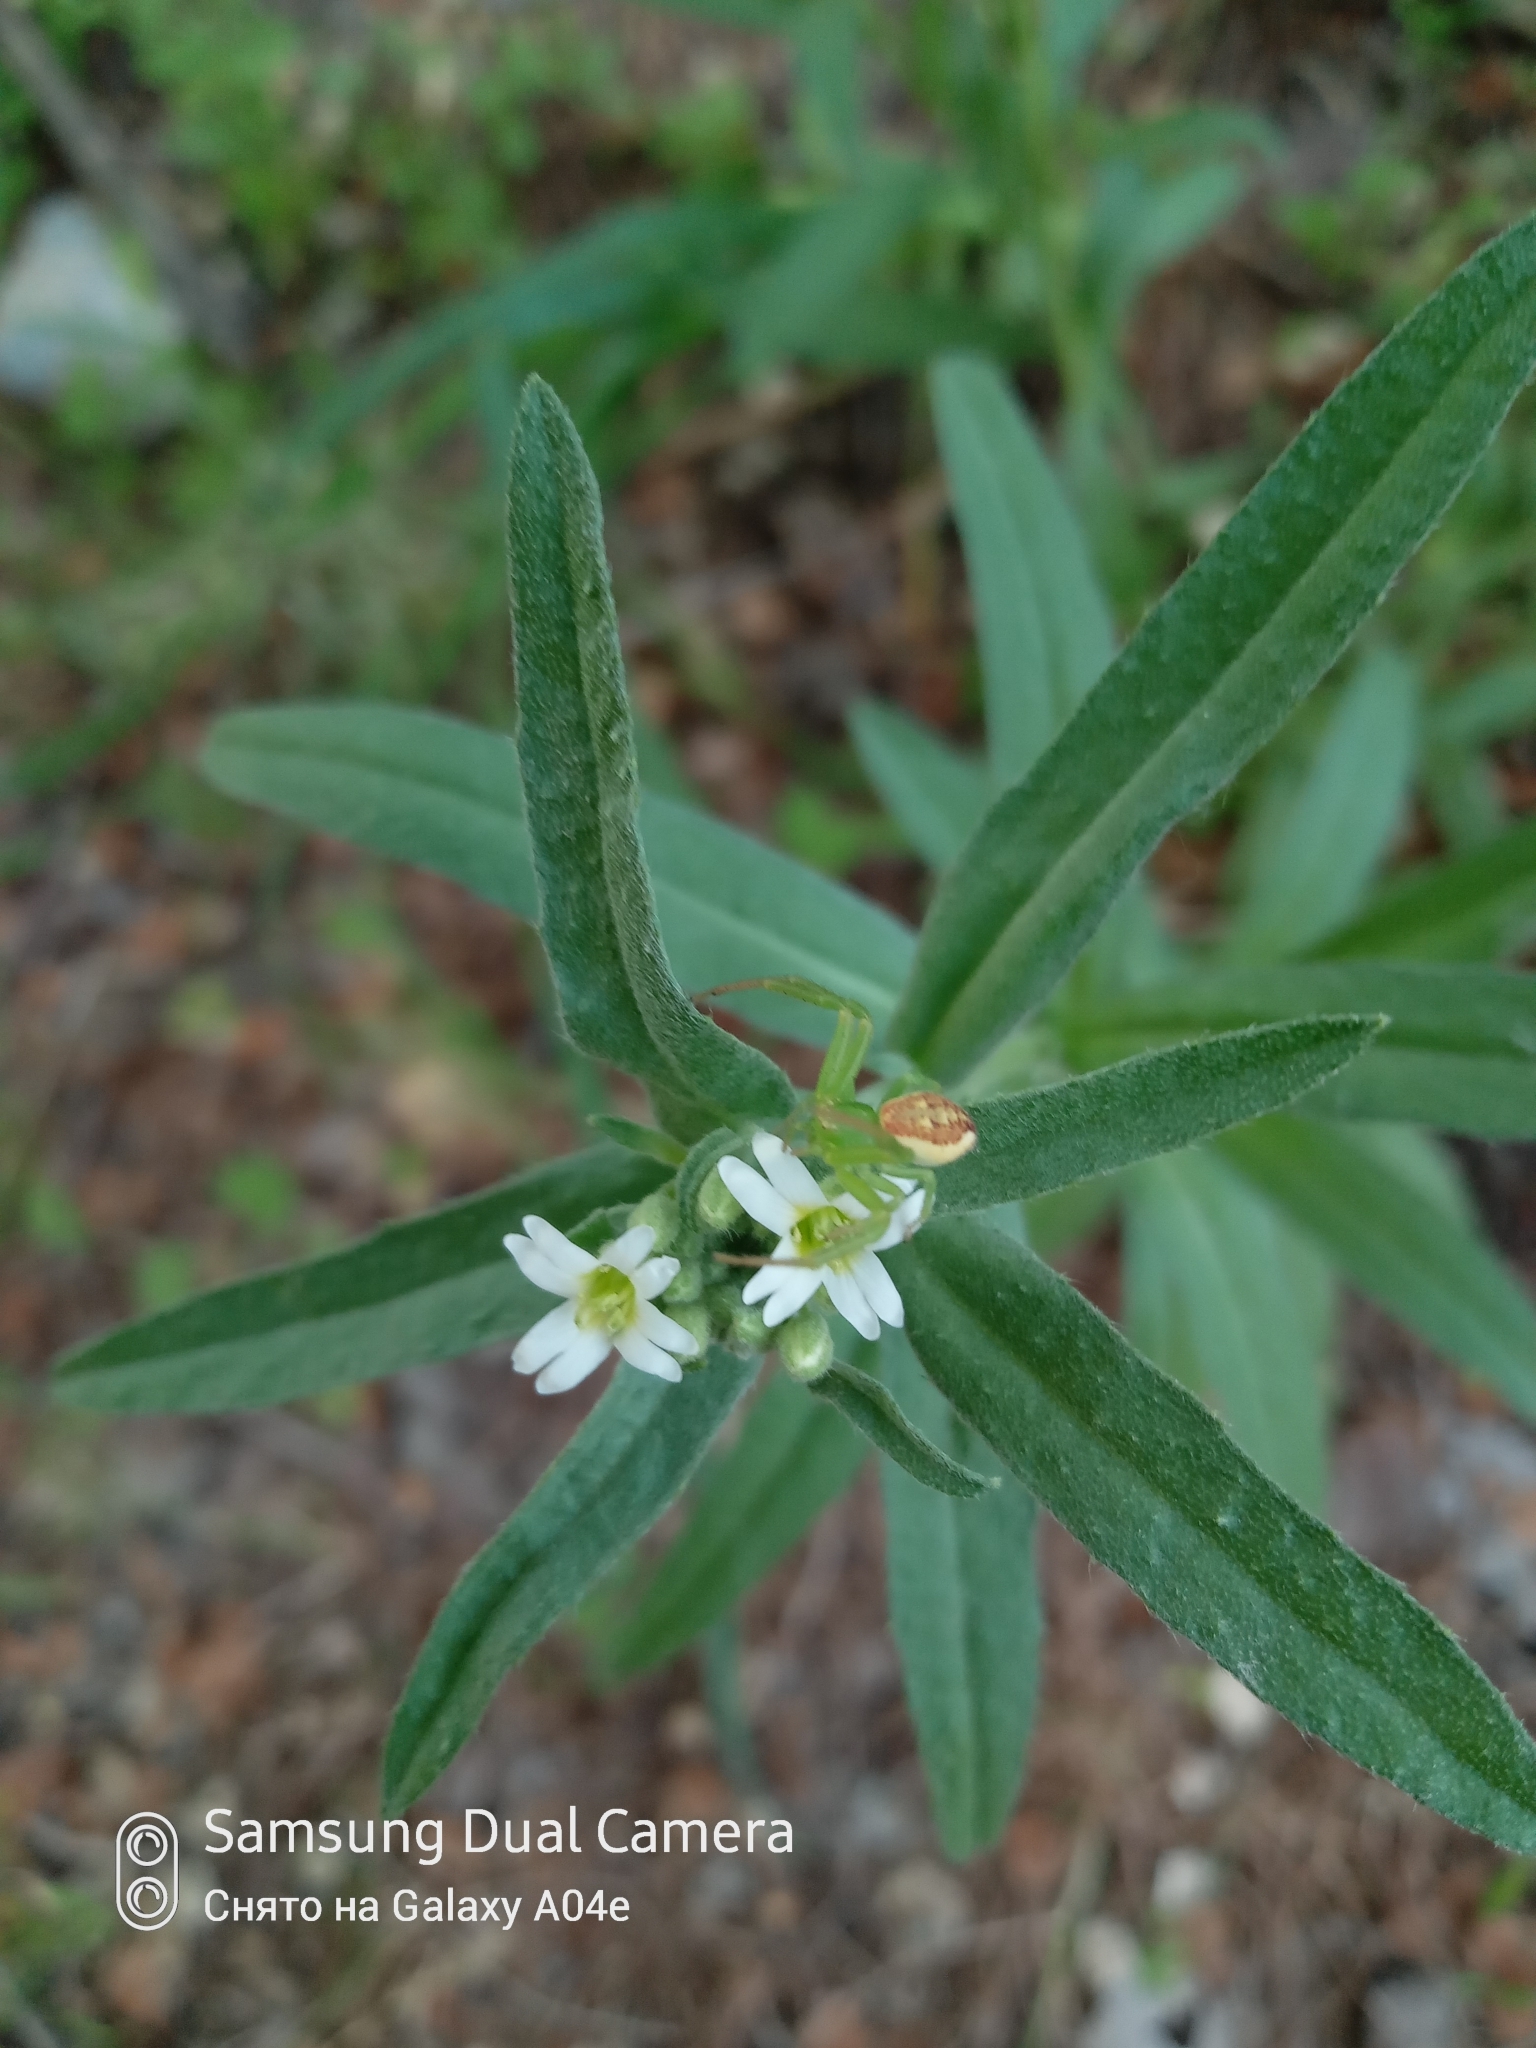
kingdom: Plantae
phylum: Tracheophyta
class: Magnoliopsida
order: Brassicales
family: Brassicaceae
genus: Berteroa
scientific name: Berteroa incana
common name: Hoary alison
